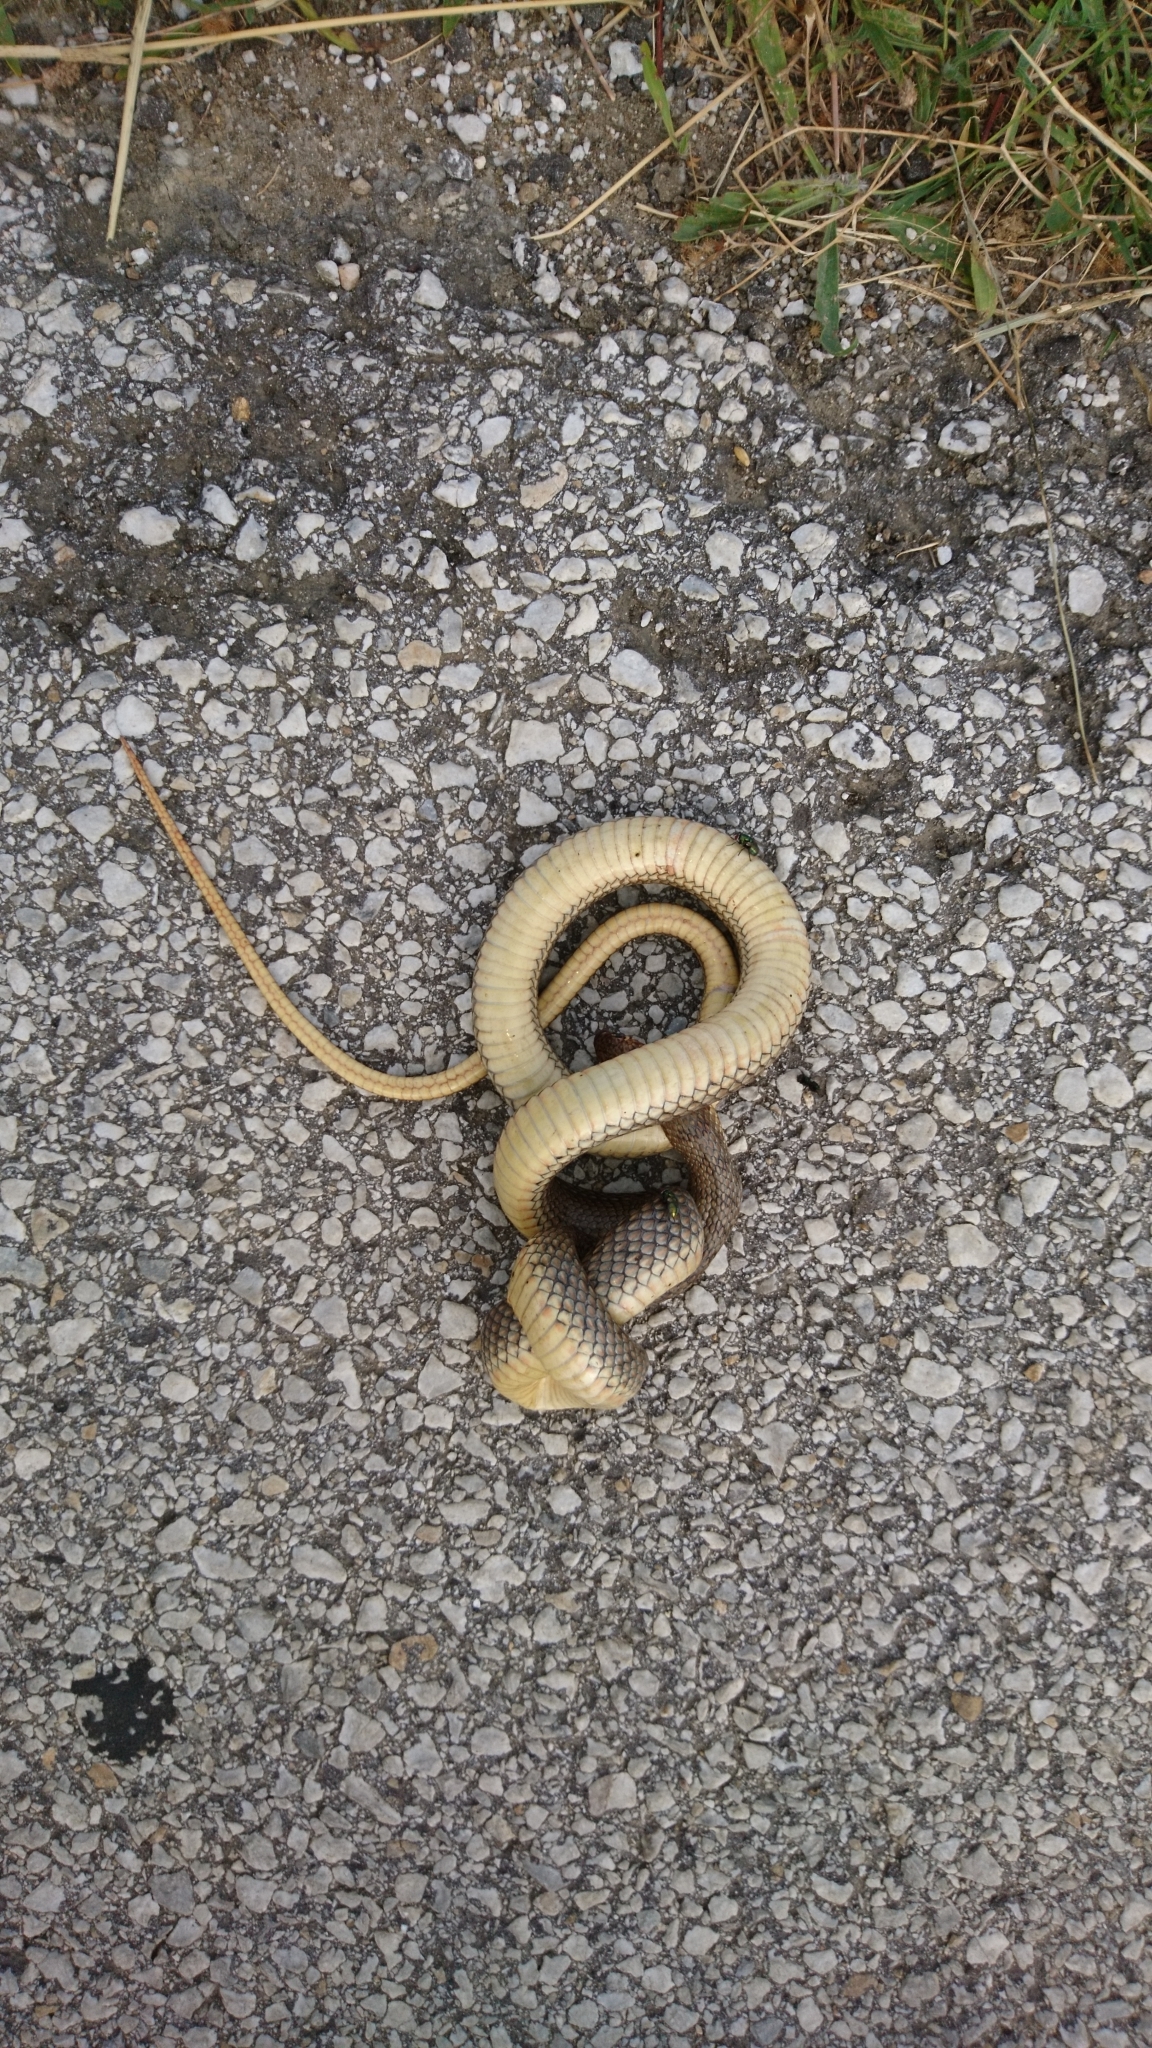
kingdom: Animalia
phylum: Chordata
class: Squamata
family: Colubridae
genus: Dolichophis
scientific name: Dolichophis caspius
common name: Large whip snake
